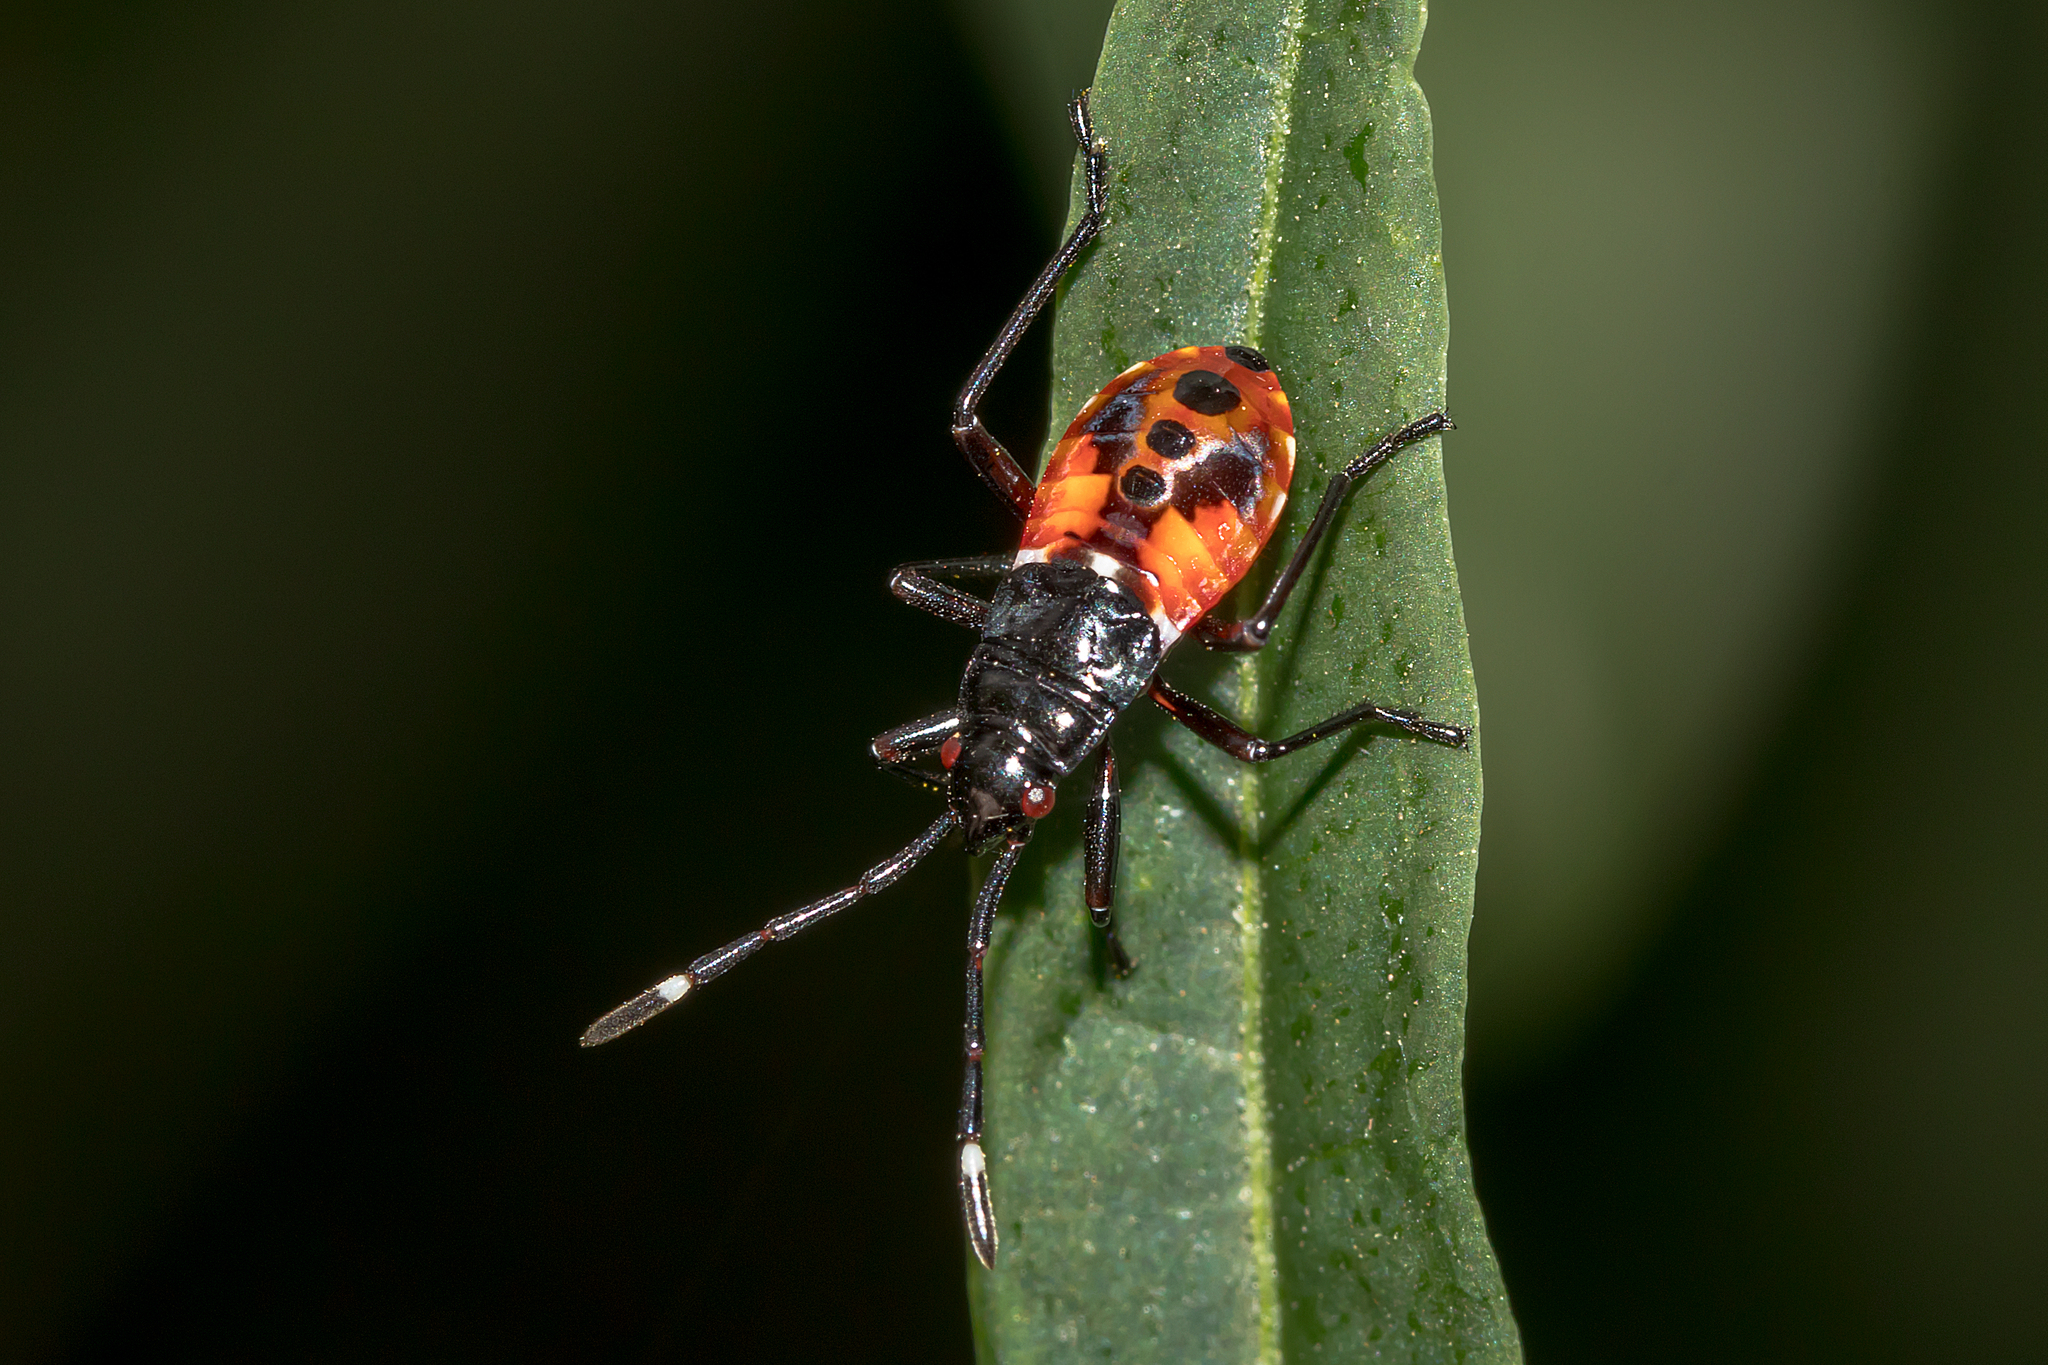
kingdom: Animalia
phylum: Arthropoda
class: Insecta
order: Hemiptera
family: Pyrrhocoridae
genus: Dindymus
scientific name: Dindymus
